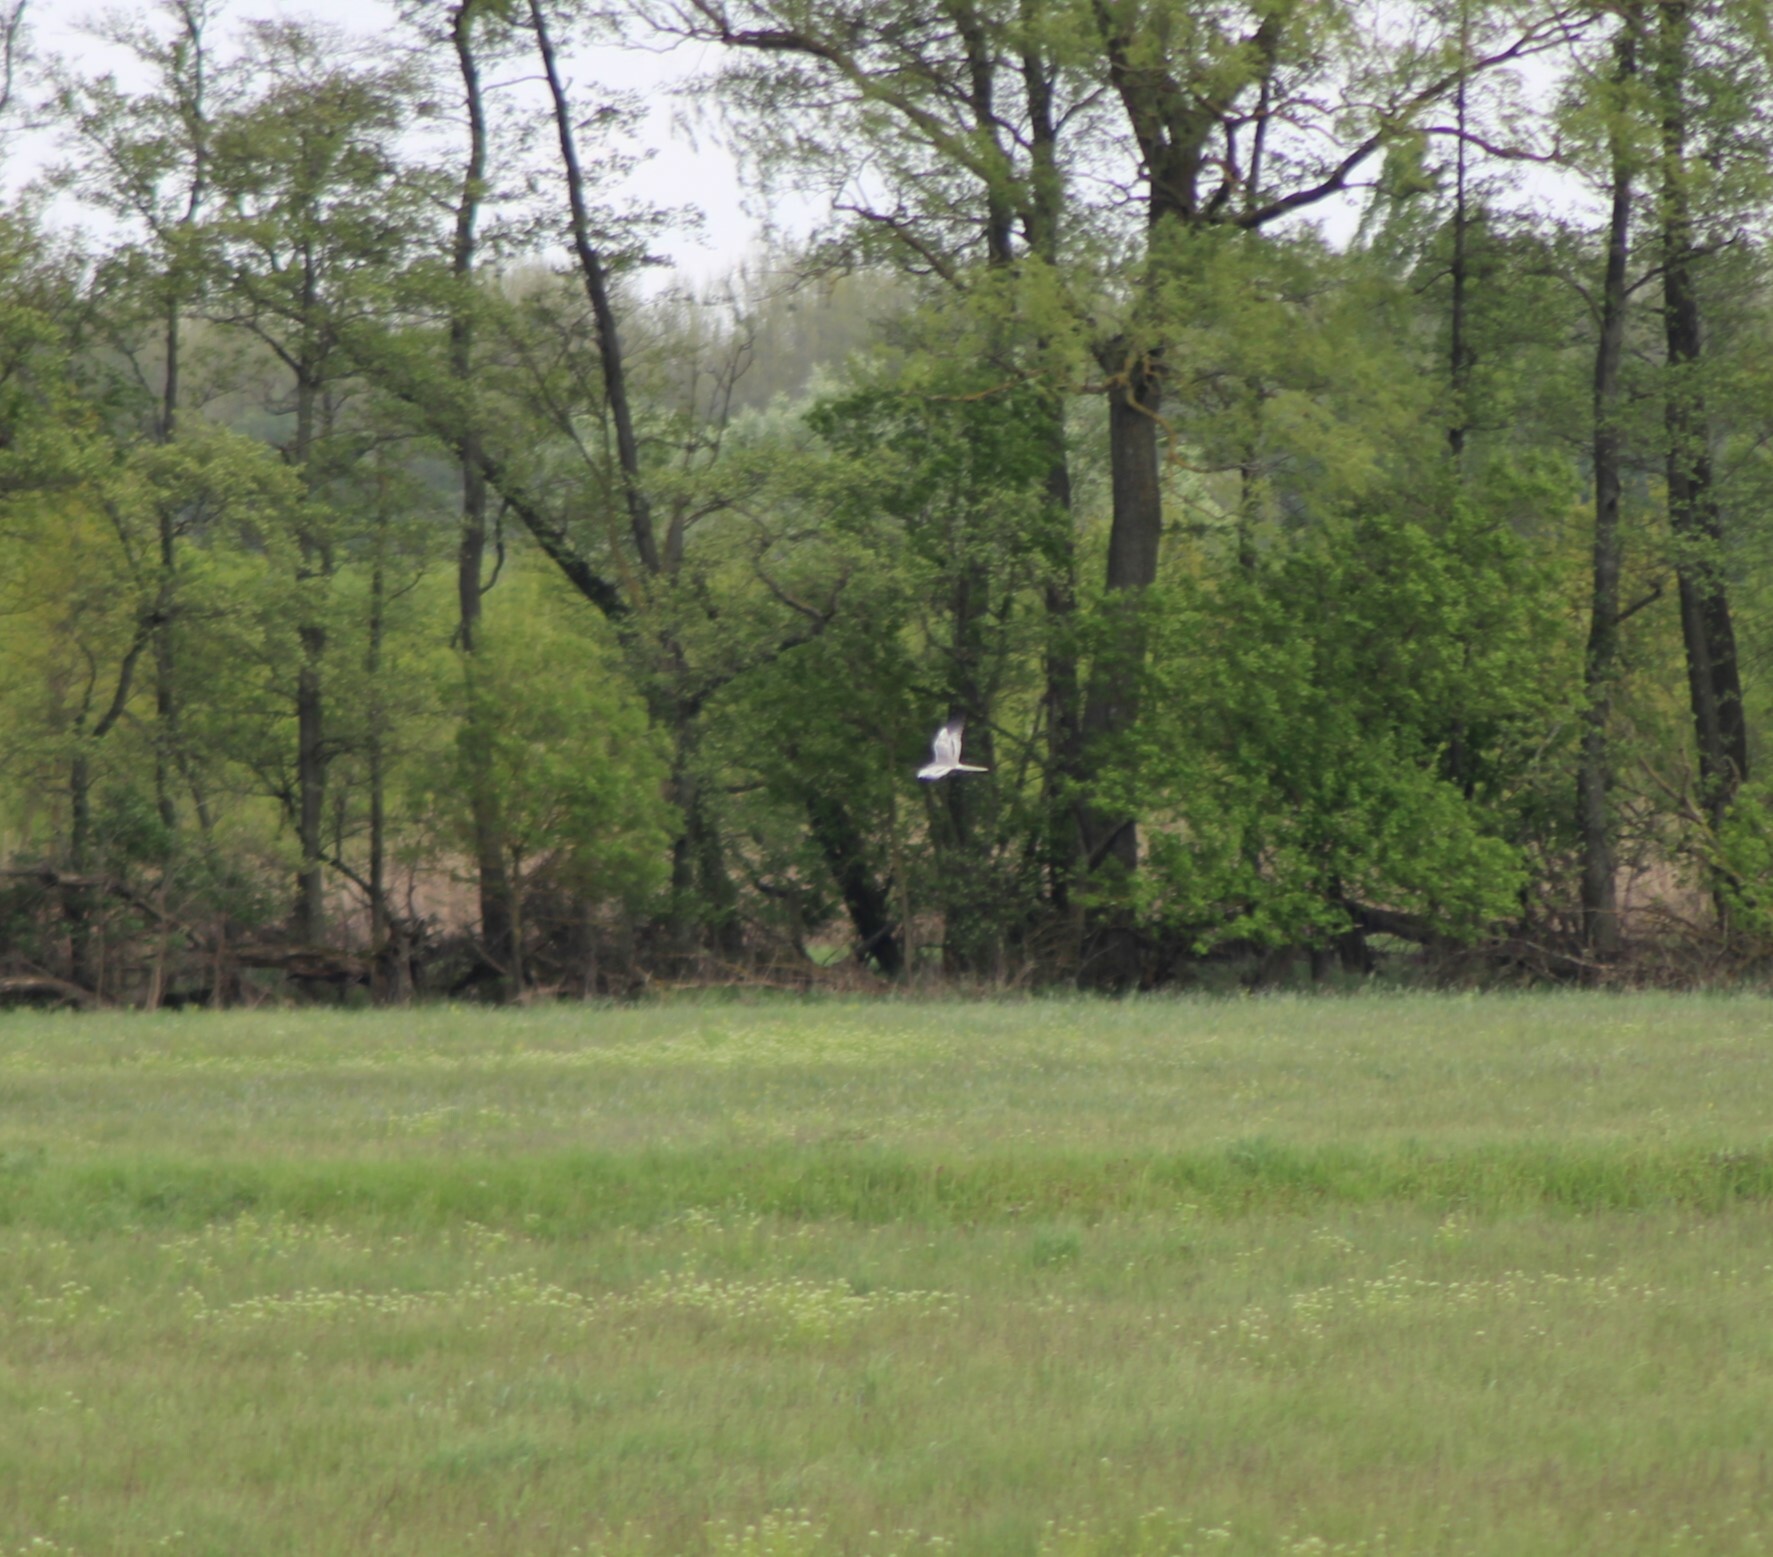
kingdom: Animalia
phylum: Chordata
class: Aves
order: Accipitriformes
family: Accipitridae
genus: Circus
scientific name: Circus pygargus
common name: Montagu's harrier
